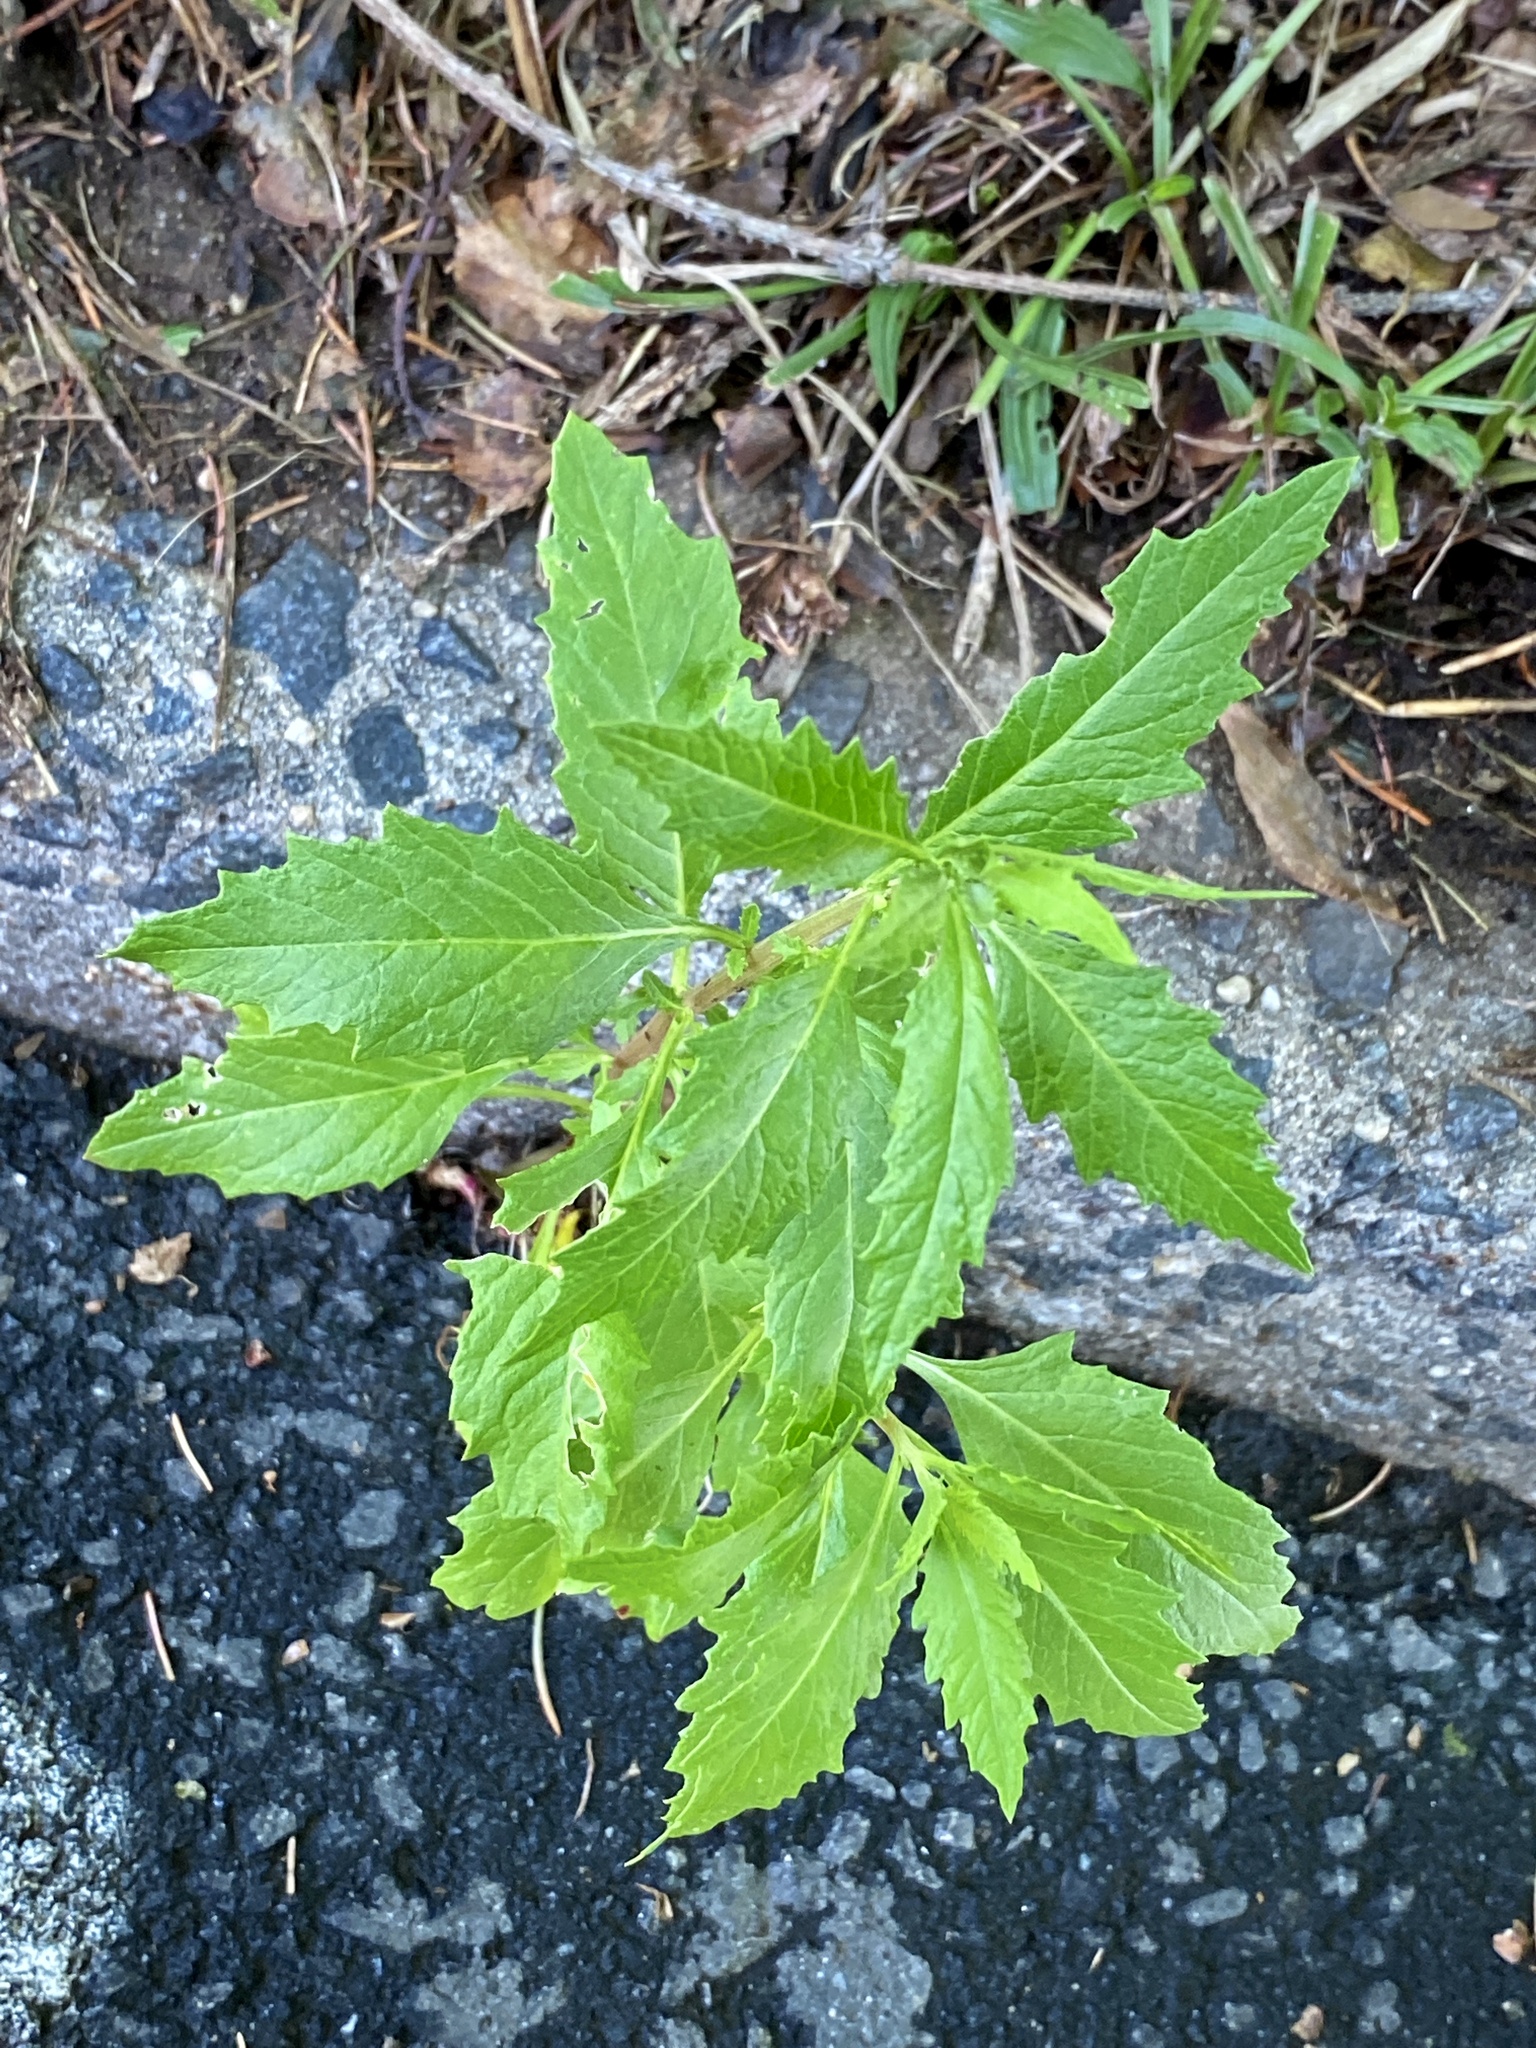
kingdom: Plantae
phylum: Tracheophyta
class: Magnoliopsida
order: Caryophyllales
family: Amaranthaceae
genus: Dysphania
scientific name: Dysphania ambrosioides
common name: Wormseed
